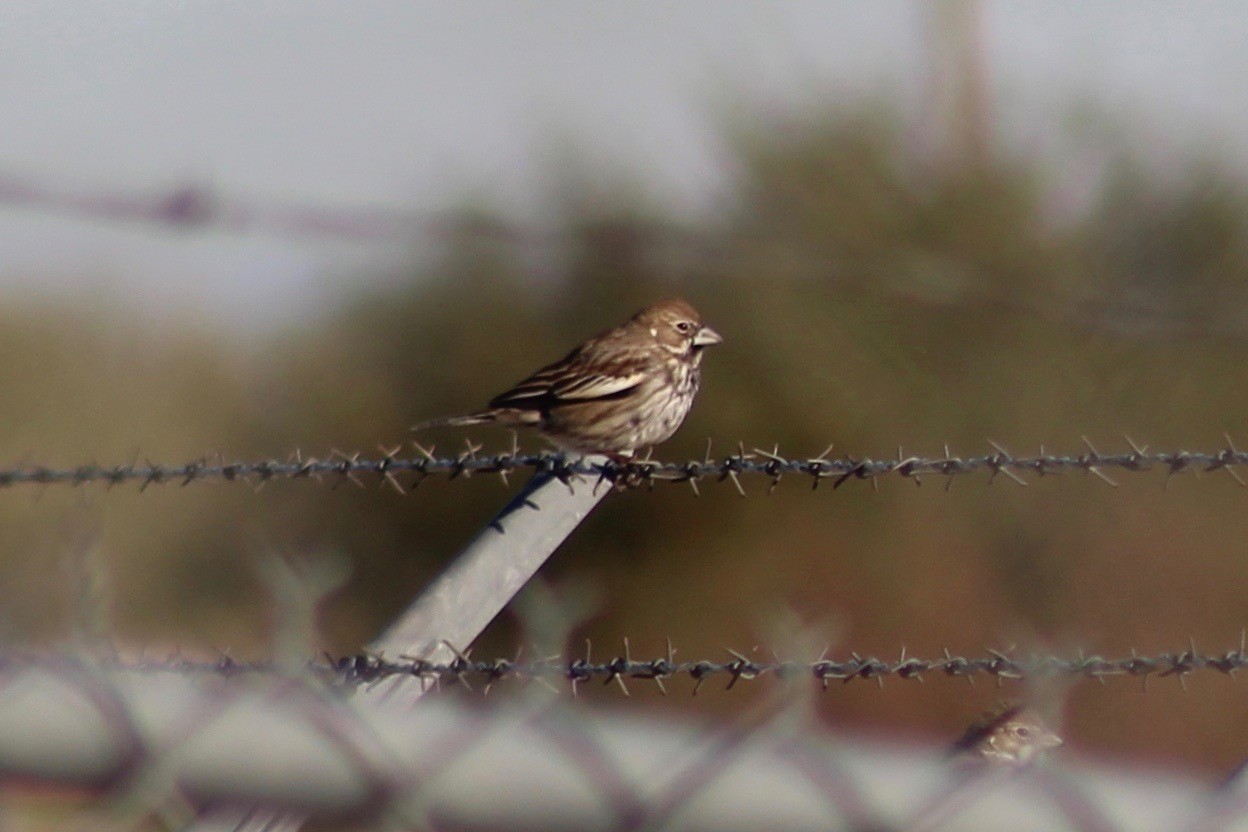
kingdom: Animalia
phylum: Chordata
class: Aves
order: Passeriformes
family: Passerellidae
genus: Calamospiza
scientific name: Calamospiza melanocorys
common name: Lark bunting
